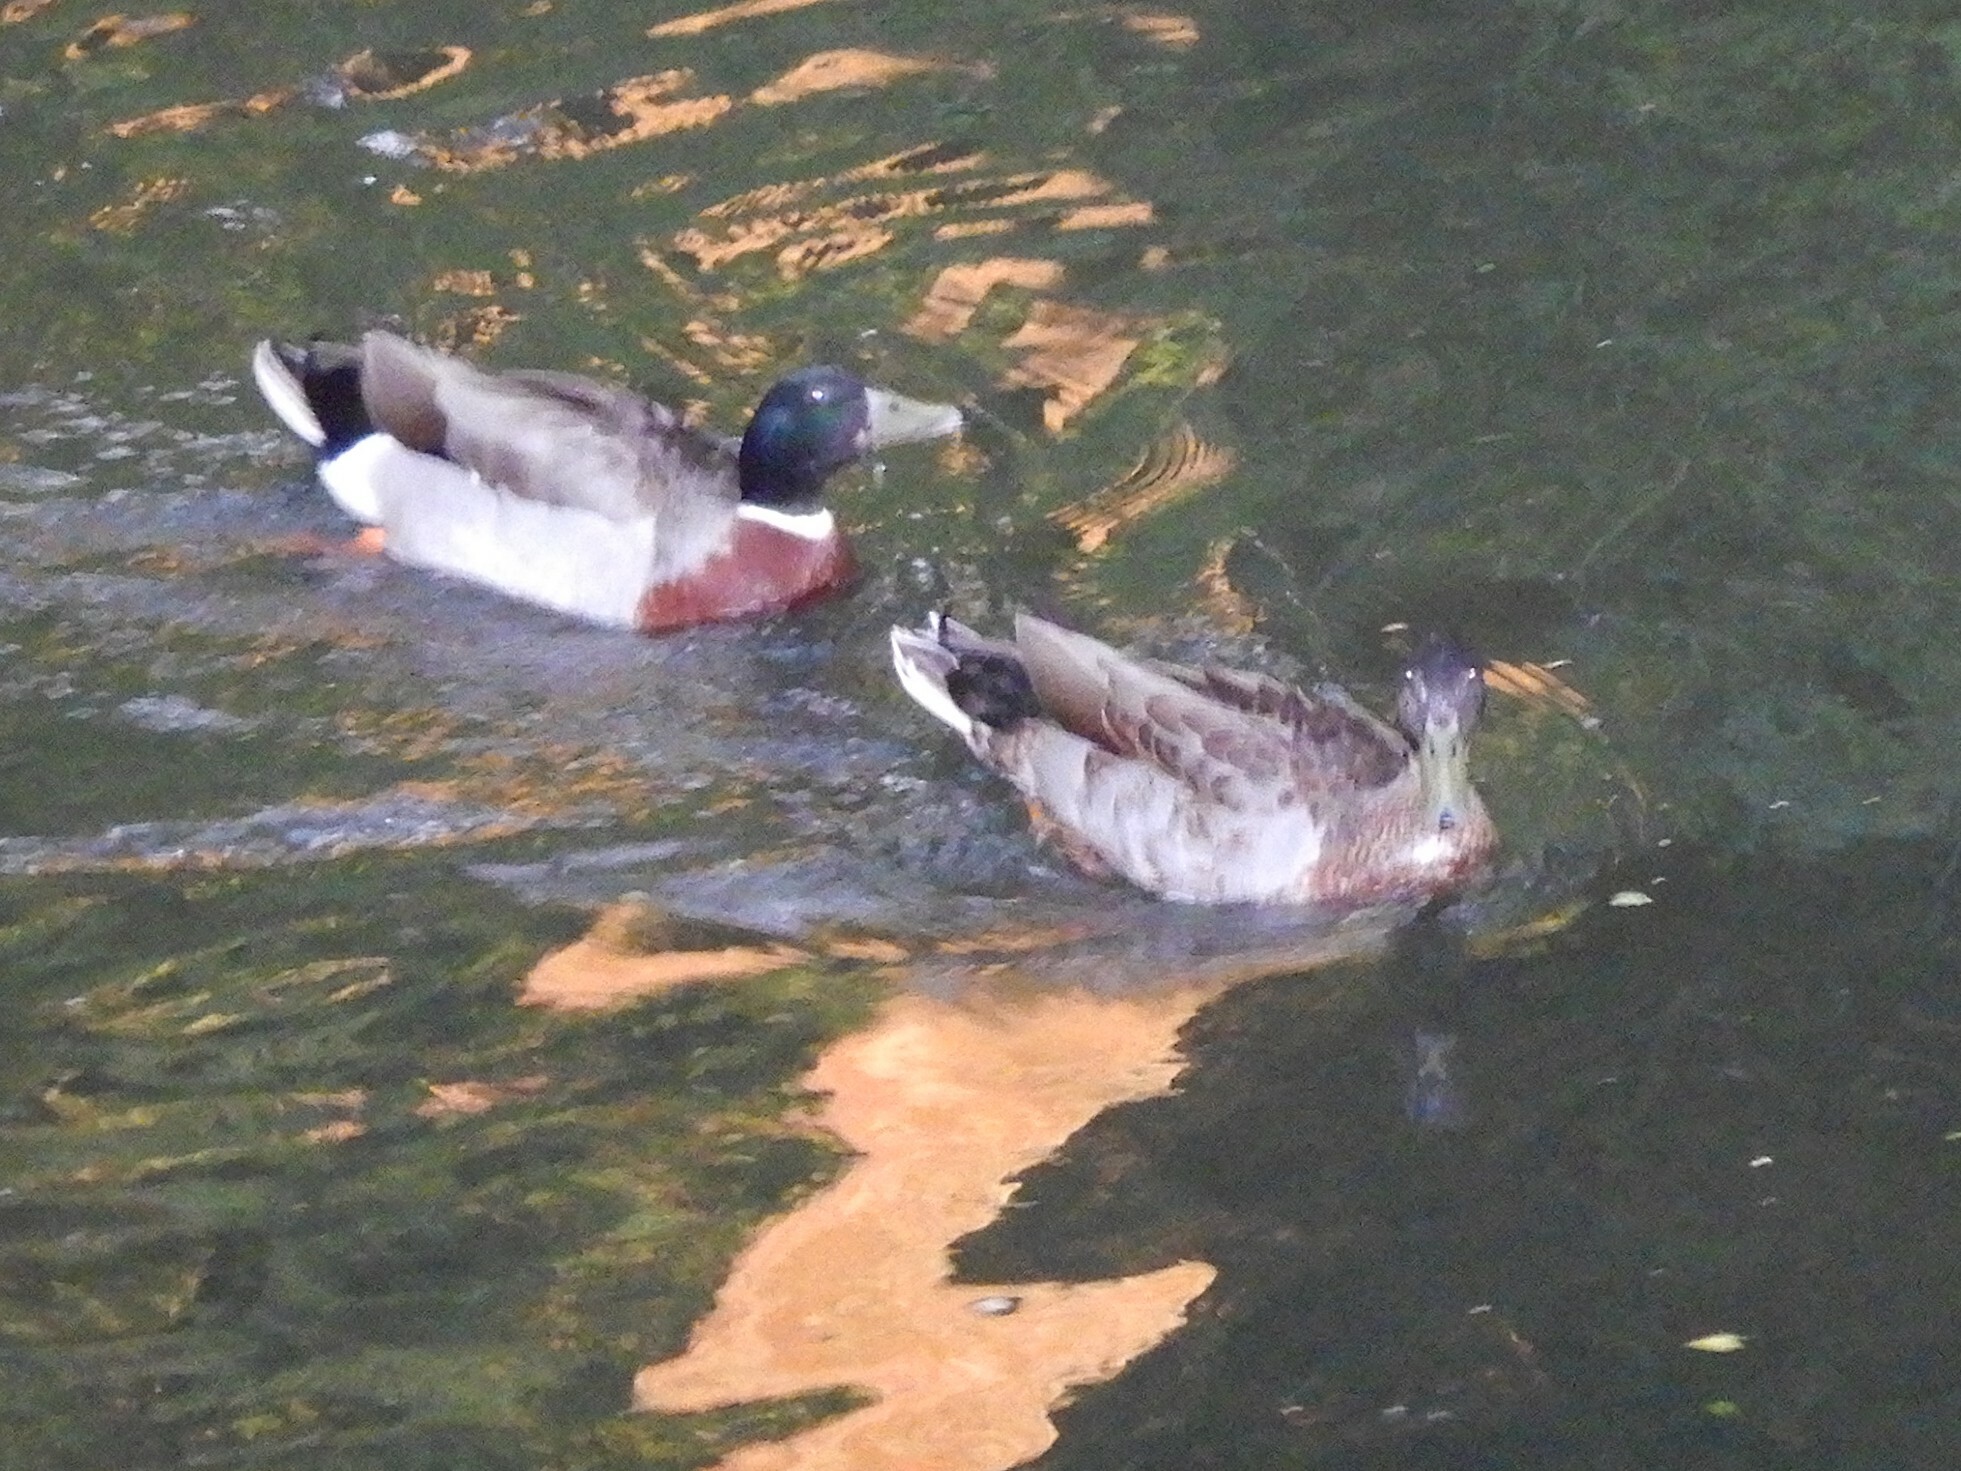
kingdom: Animalia
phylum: Chordata
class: Aves
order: Anseriformes
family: Anatidae
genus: Anas
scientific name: Anas platyrhynchos
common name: Mallard
